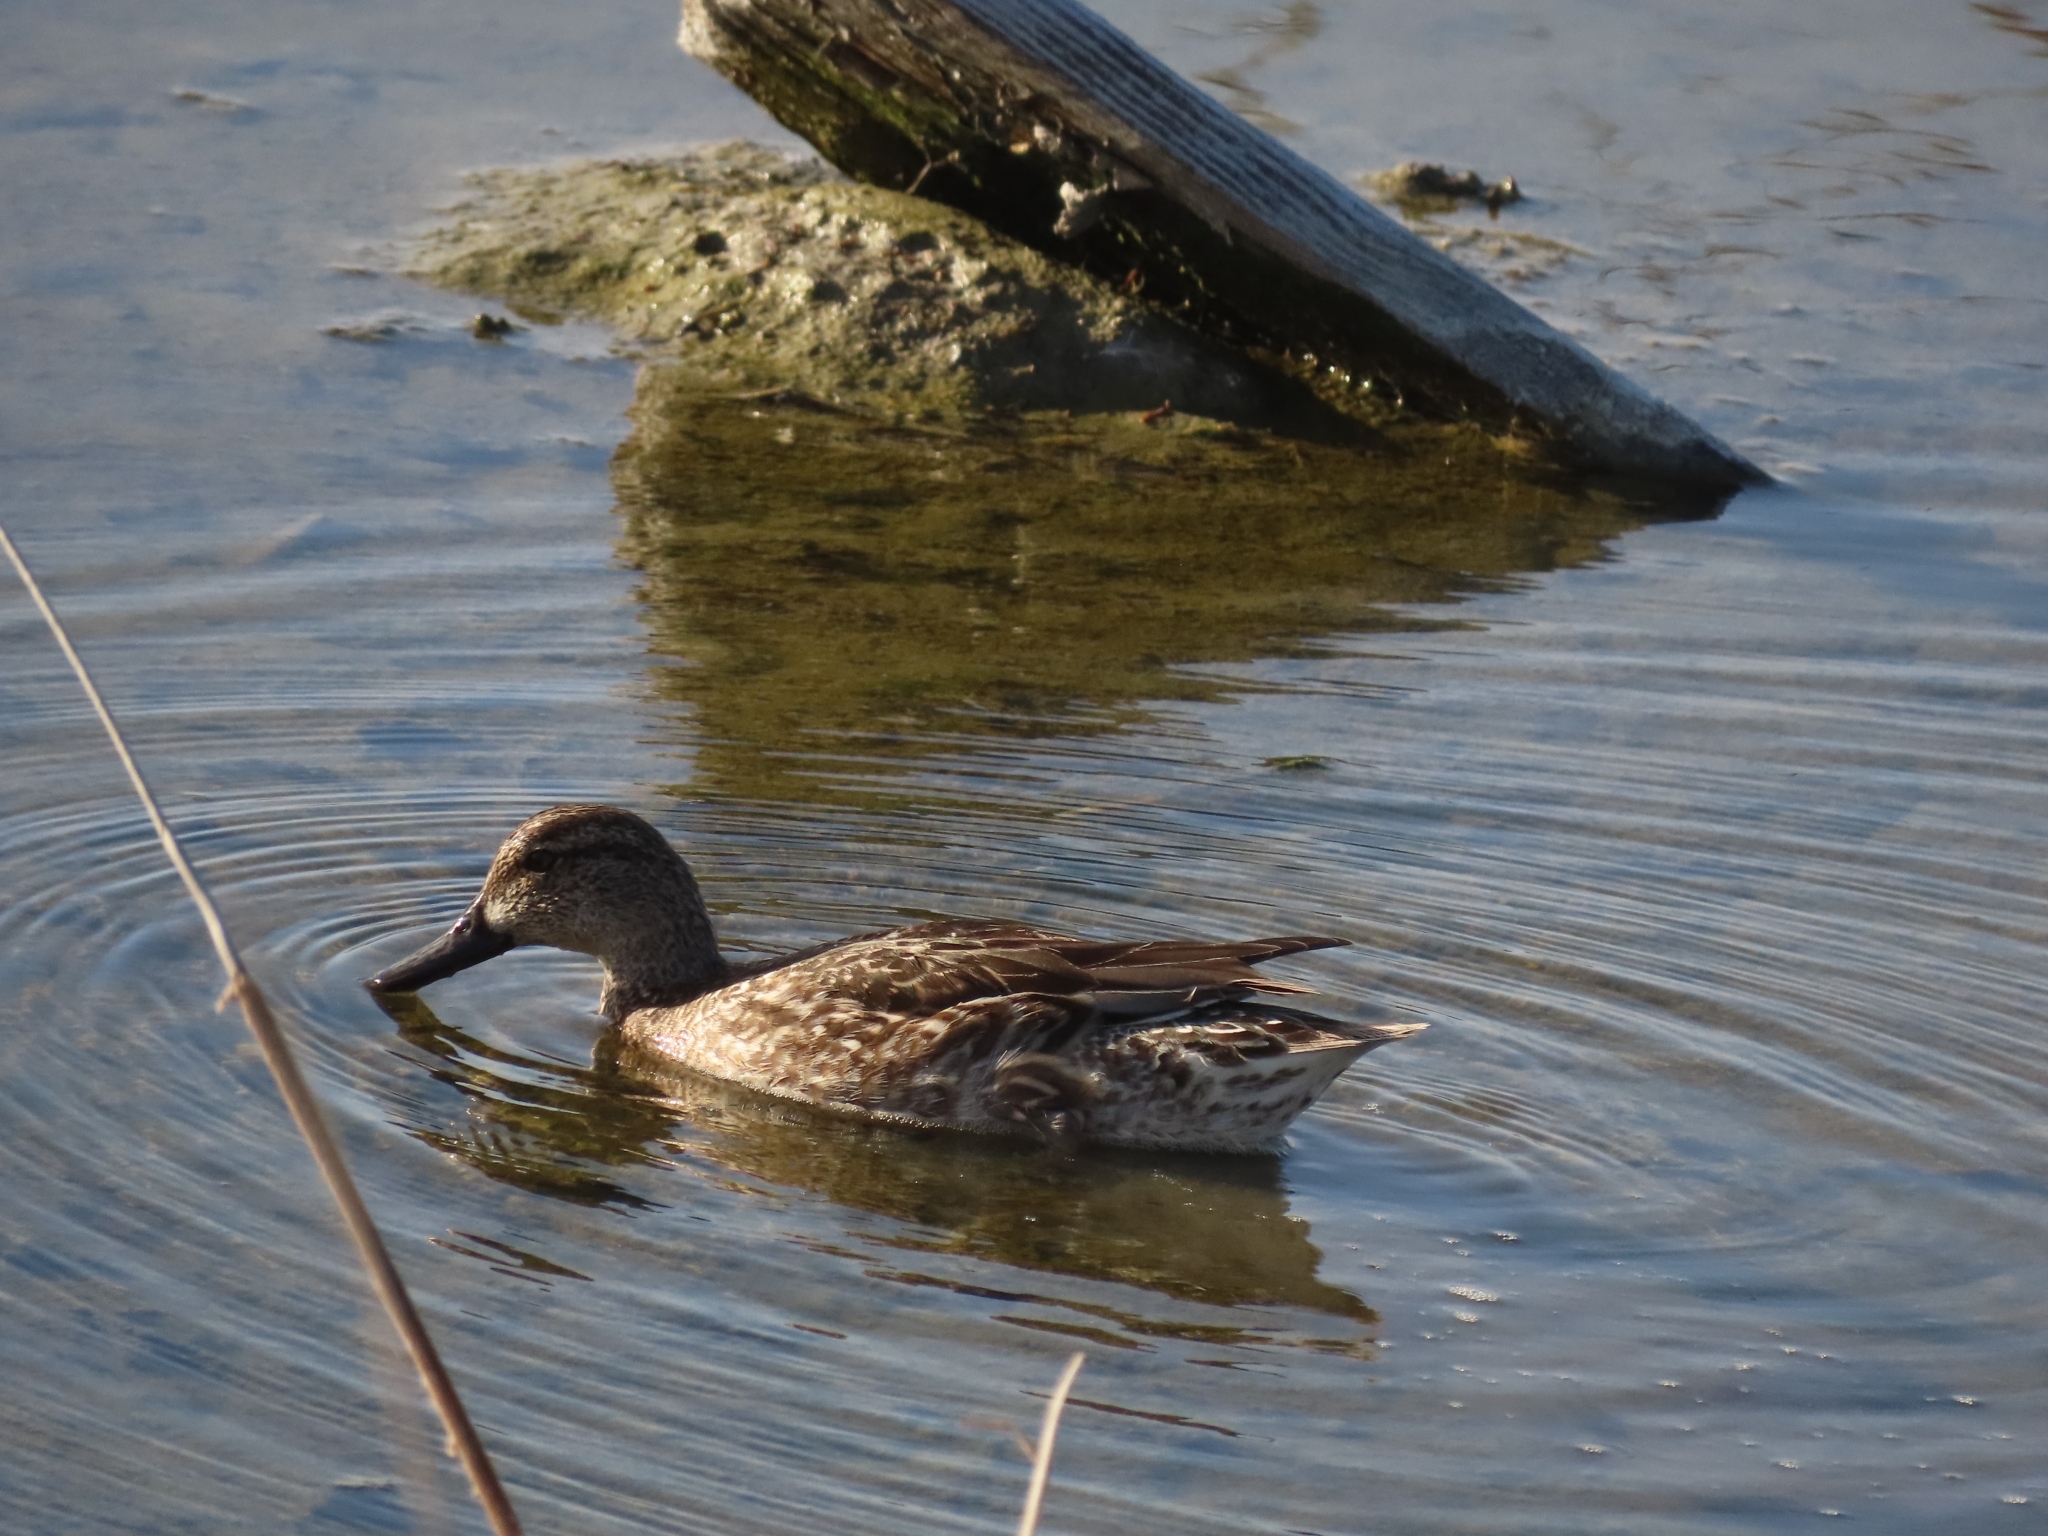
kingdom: Animalia
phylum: Chordata
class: Aves
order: Anseriformes
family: Anatidae
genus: Anas
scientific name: Anas crecca
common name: Eurasian teal
